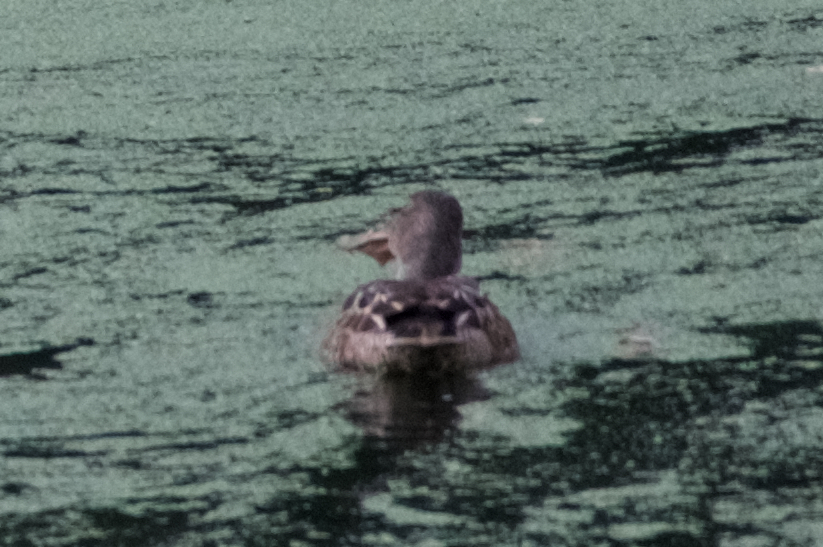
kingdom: Animalia
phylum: Chordata
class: Aves
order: Anseriformes
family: Anatidae
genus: Spatula
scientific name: Spatula clypeata
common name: Northern shoveler
